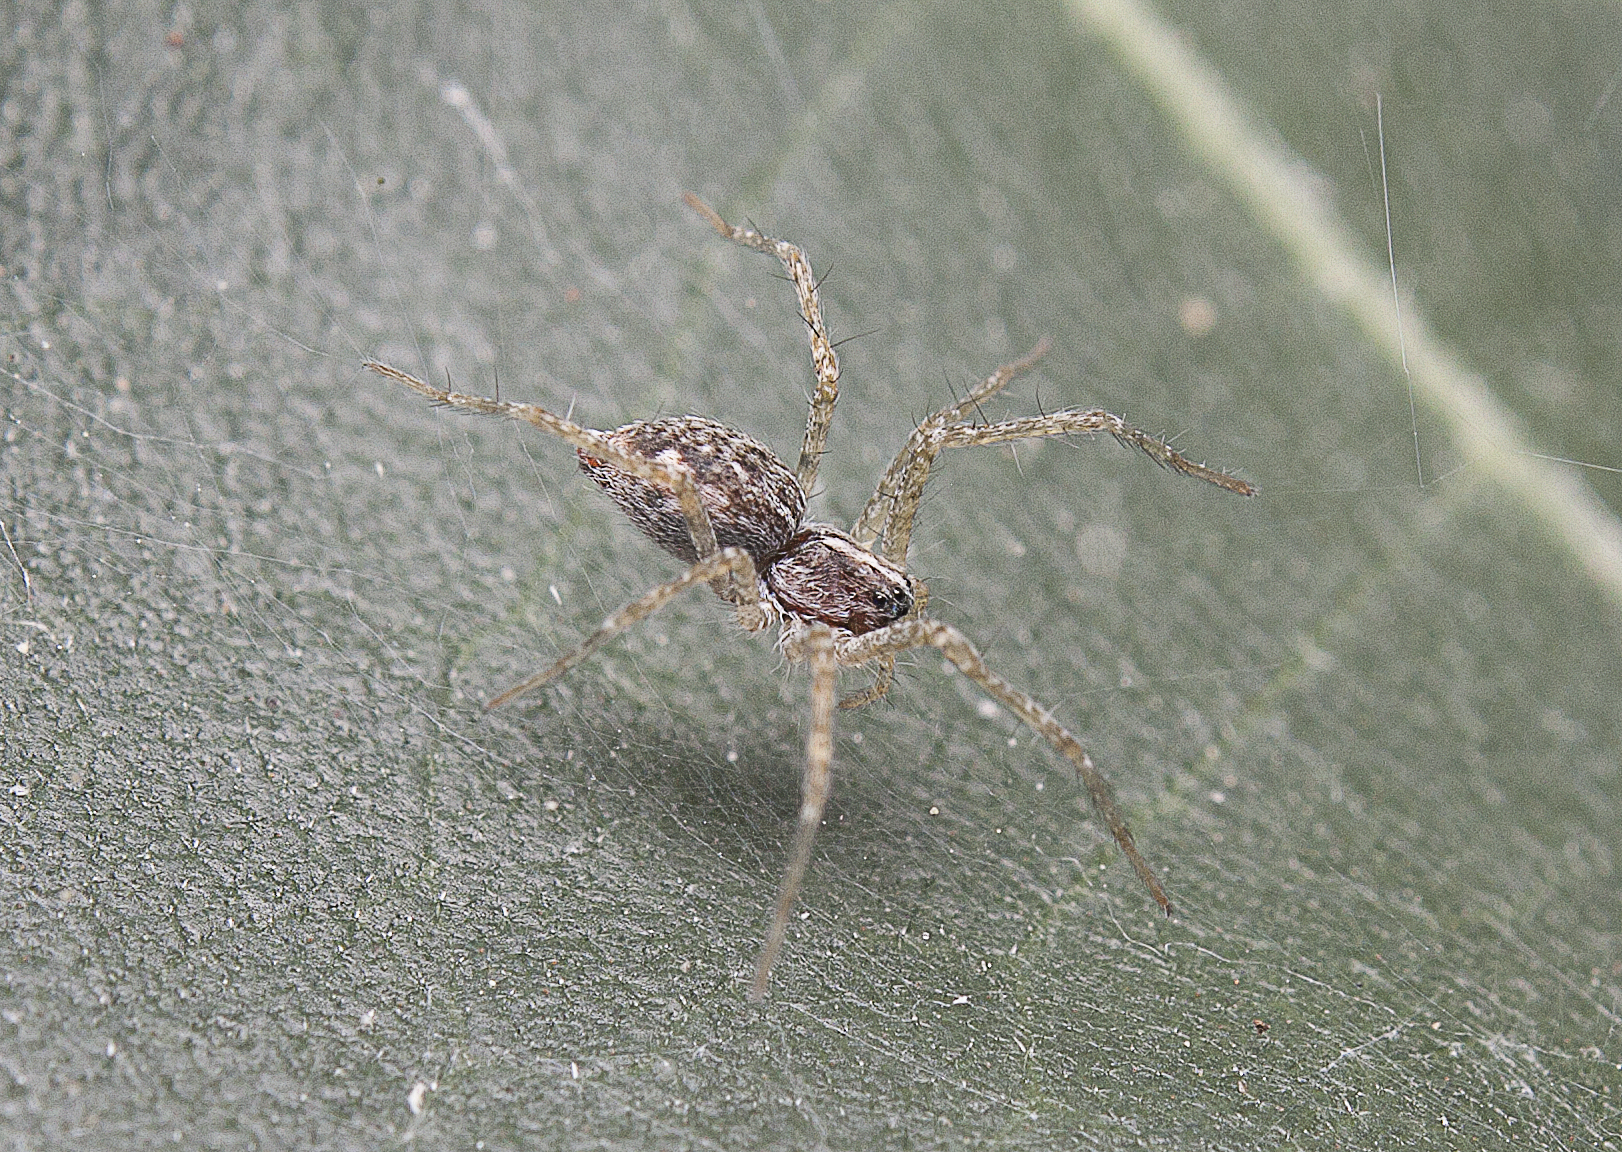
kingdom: Animalia
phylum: Arthropoda
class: Arachnida
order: Araneae
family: Pisauridae
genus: Dendrolycosa
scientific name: Dendrolycosa icadia
